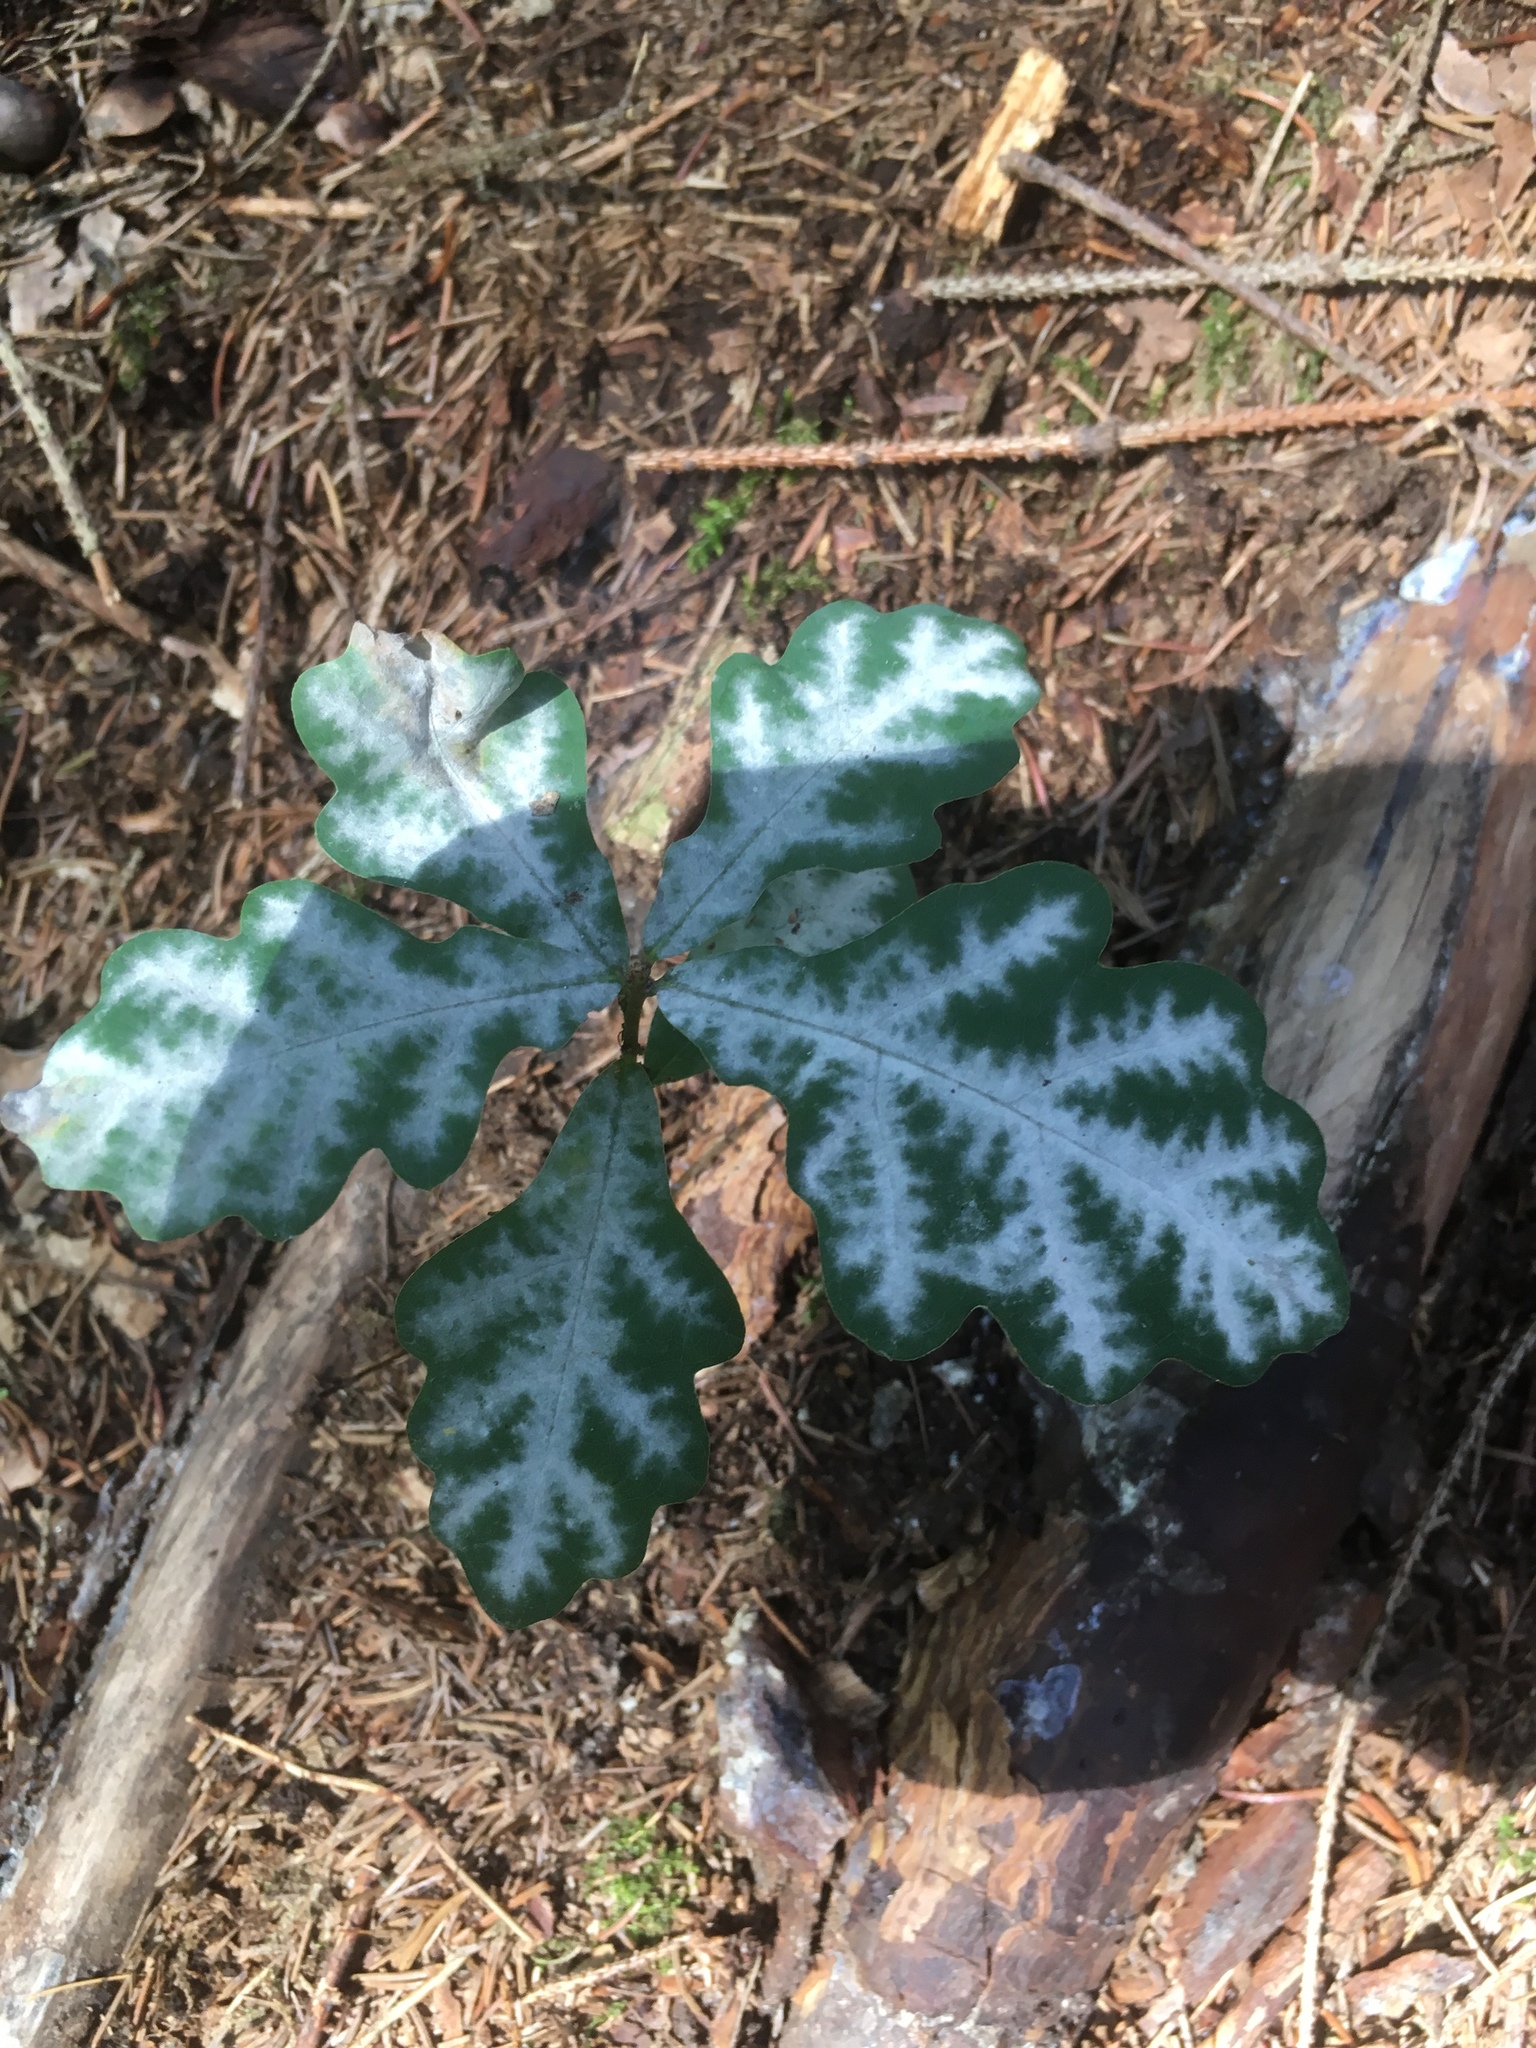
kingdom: Plantae
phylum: Tracheophyta
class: Magnoliopsida
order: Fagales
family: Fagaceae
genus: Quercus
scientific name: Quercus robur
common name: Pedunculate oak
